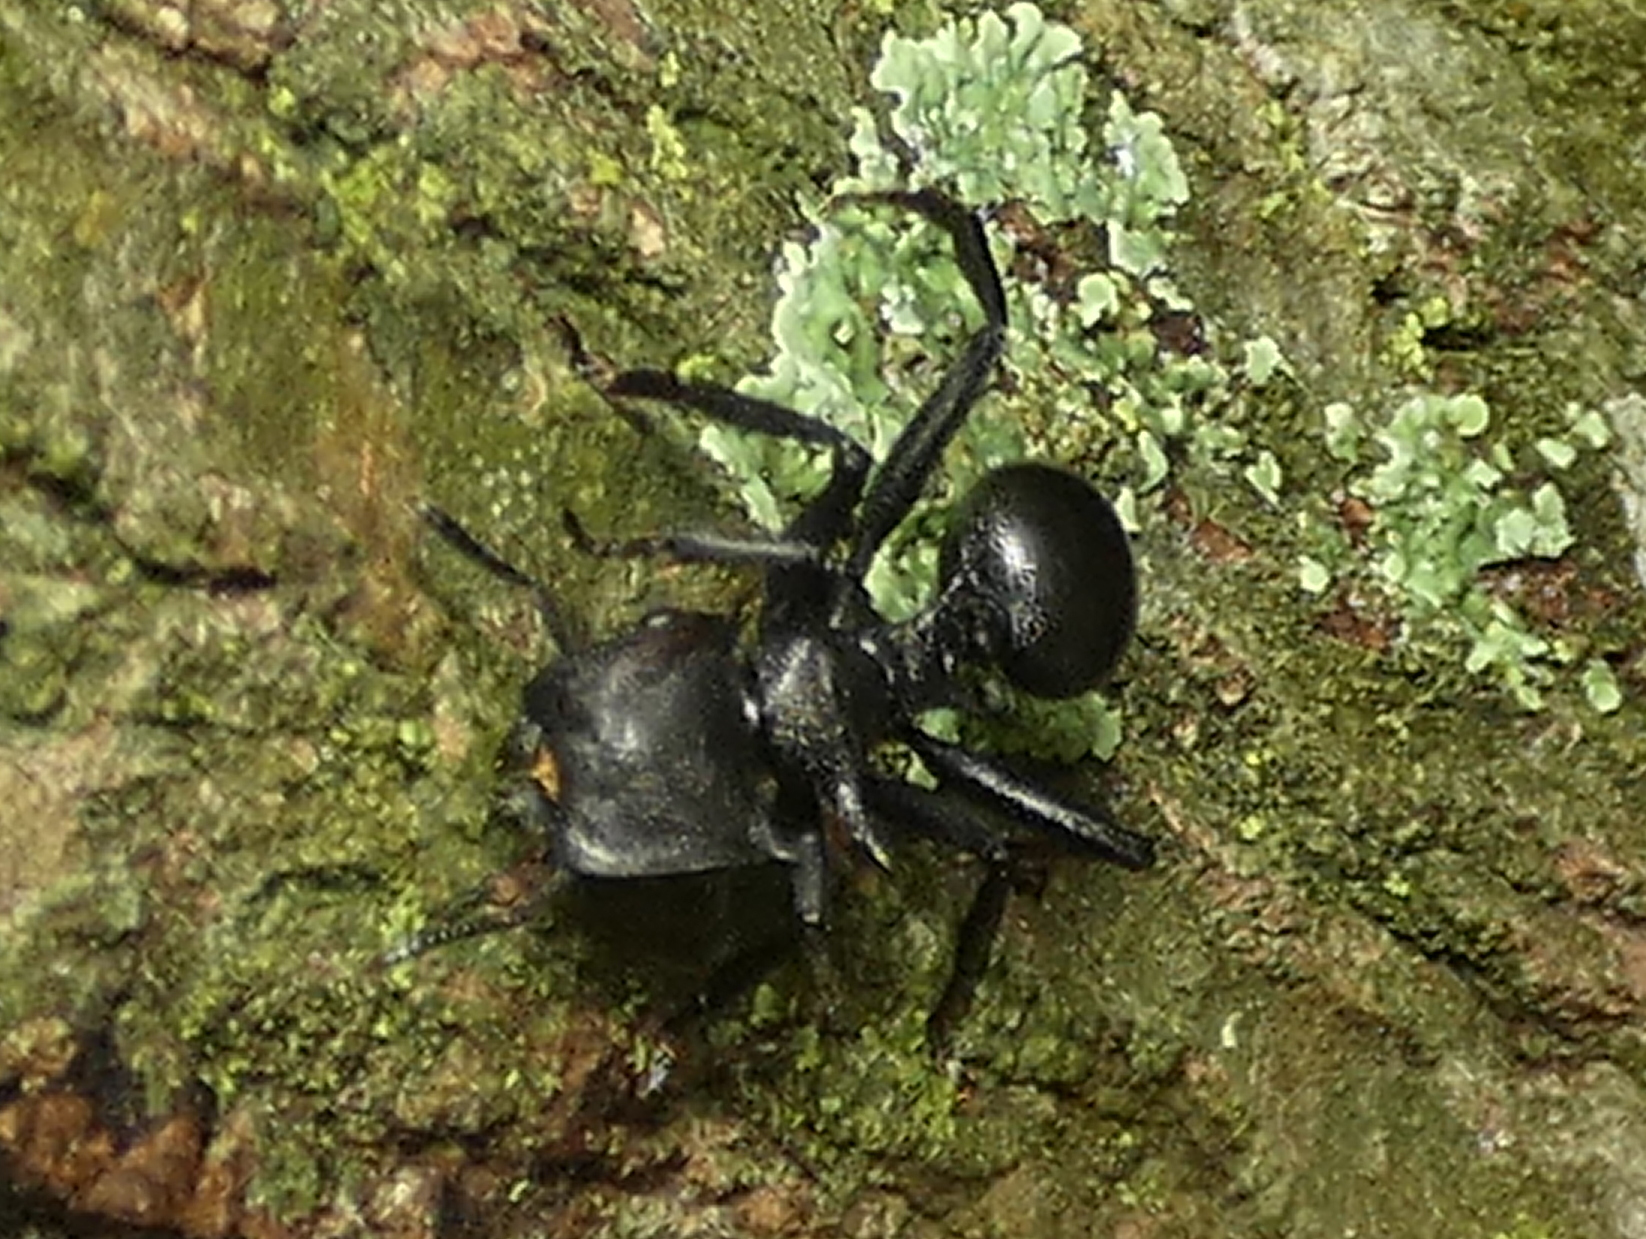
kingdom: Animalia
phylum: Arthropoda
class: Insecta
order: Hymenoptera
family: Formicidae
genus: Cephalotes
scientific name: Cephalotes atratus
